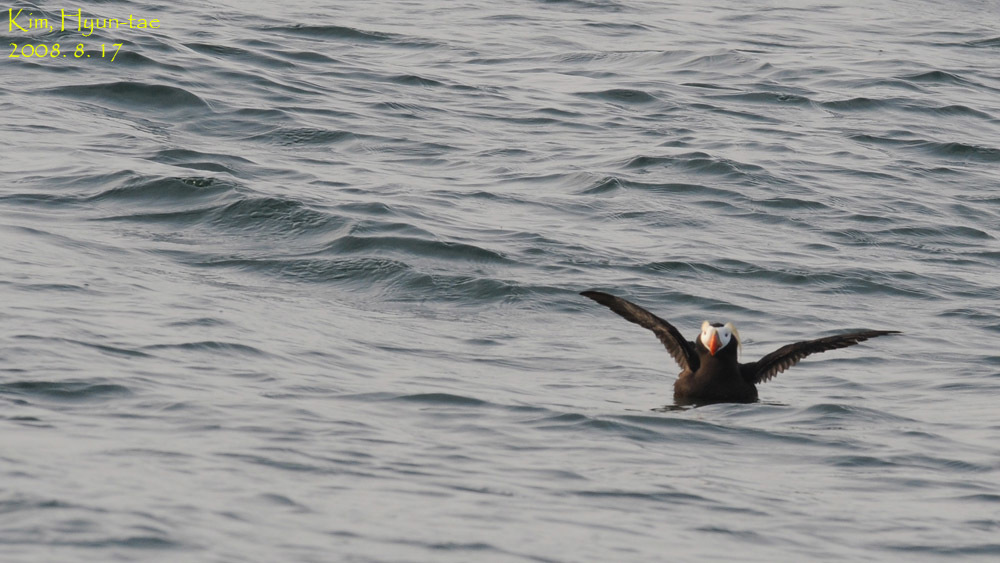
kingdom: Animalia
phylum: Chordata
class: Aves
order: Charadriiformes
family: Alcidae
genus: Fratercula
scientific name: Fratercula cirrhata
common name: Tufted puffin
